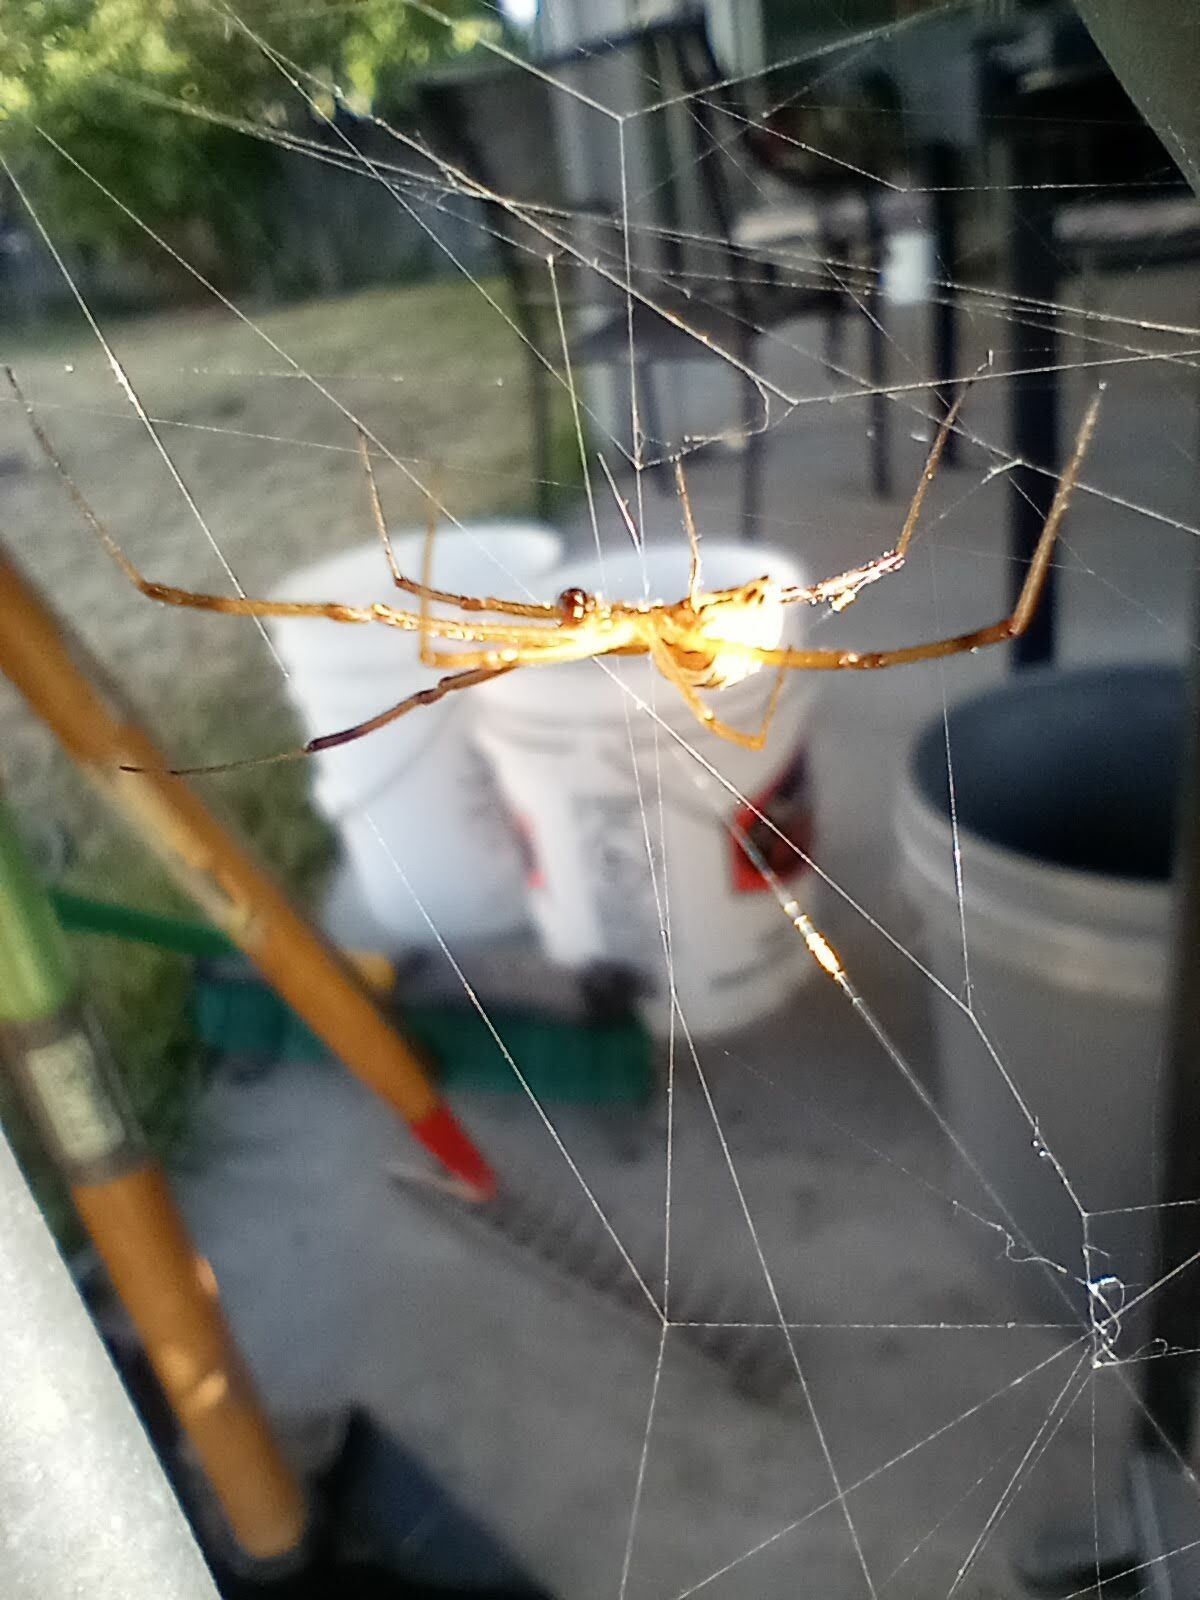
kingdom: Animalia
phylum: Arthropoda
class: Arachnida
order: Araneae
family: Theridiidae
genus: Latrodectus
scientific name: Latrodectus hesperus
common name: Western black widow
